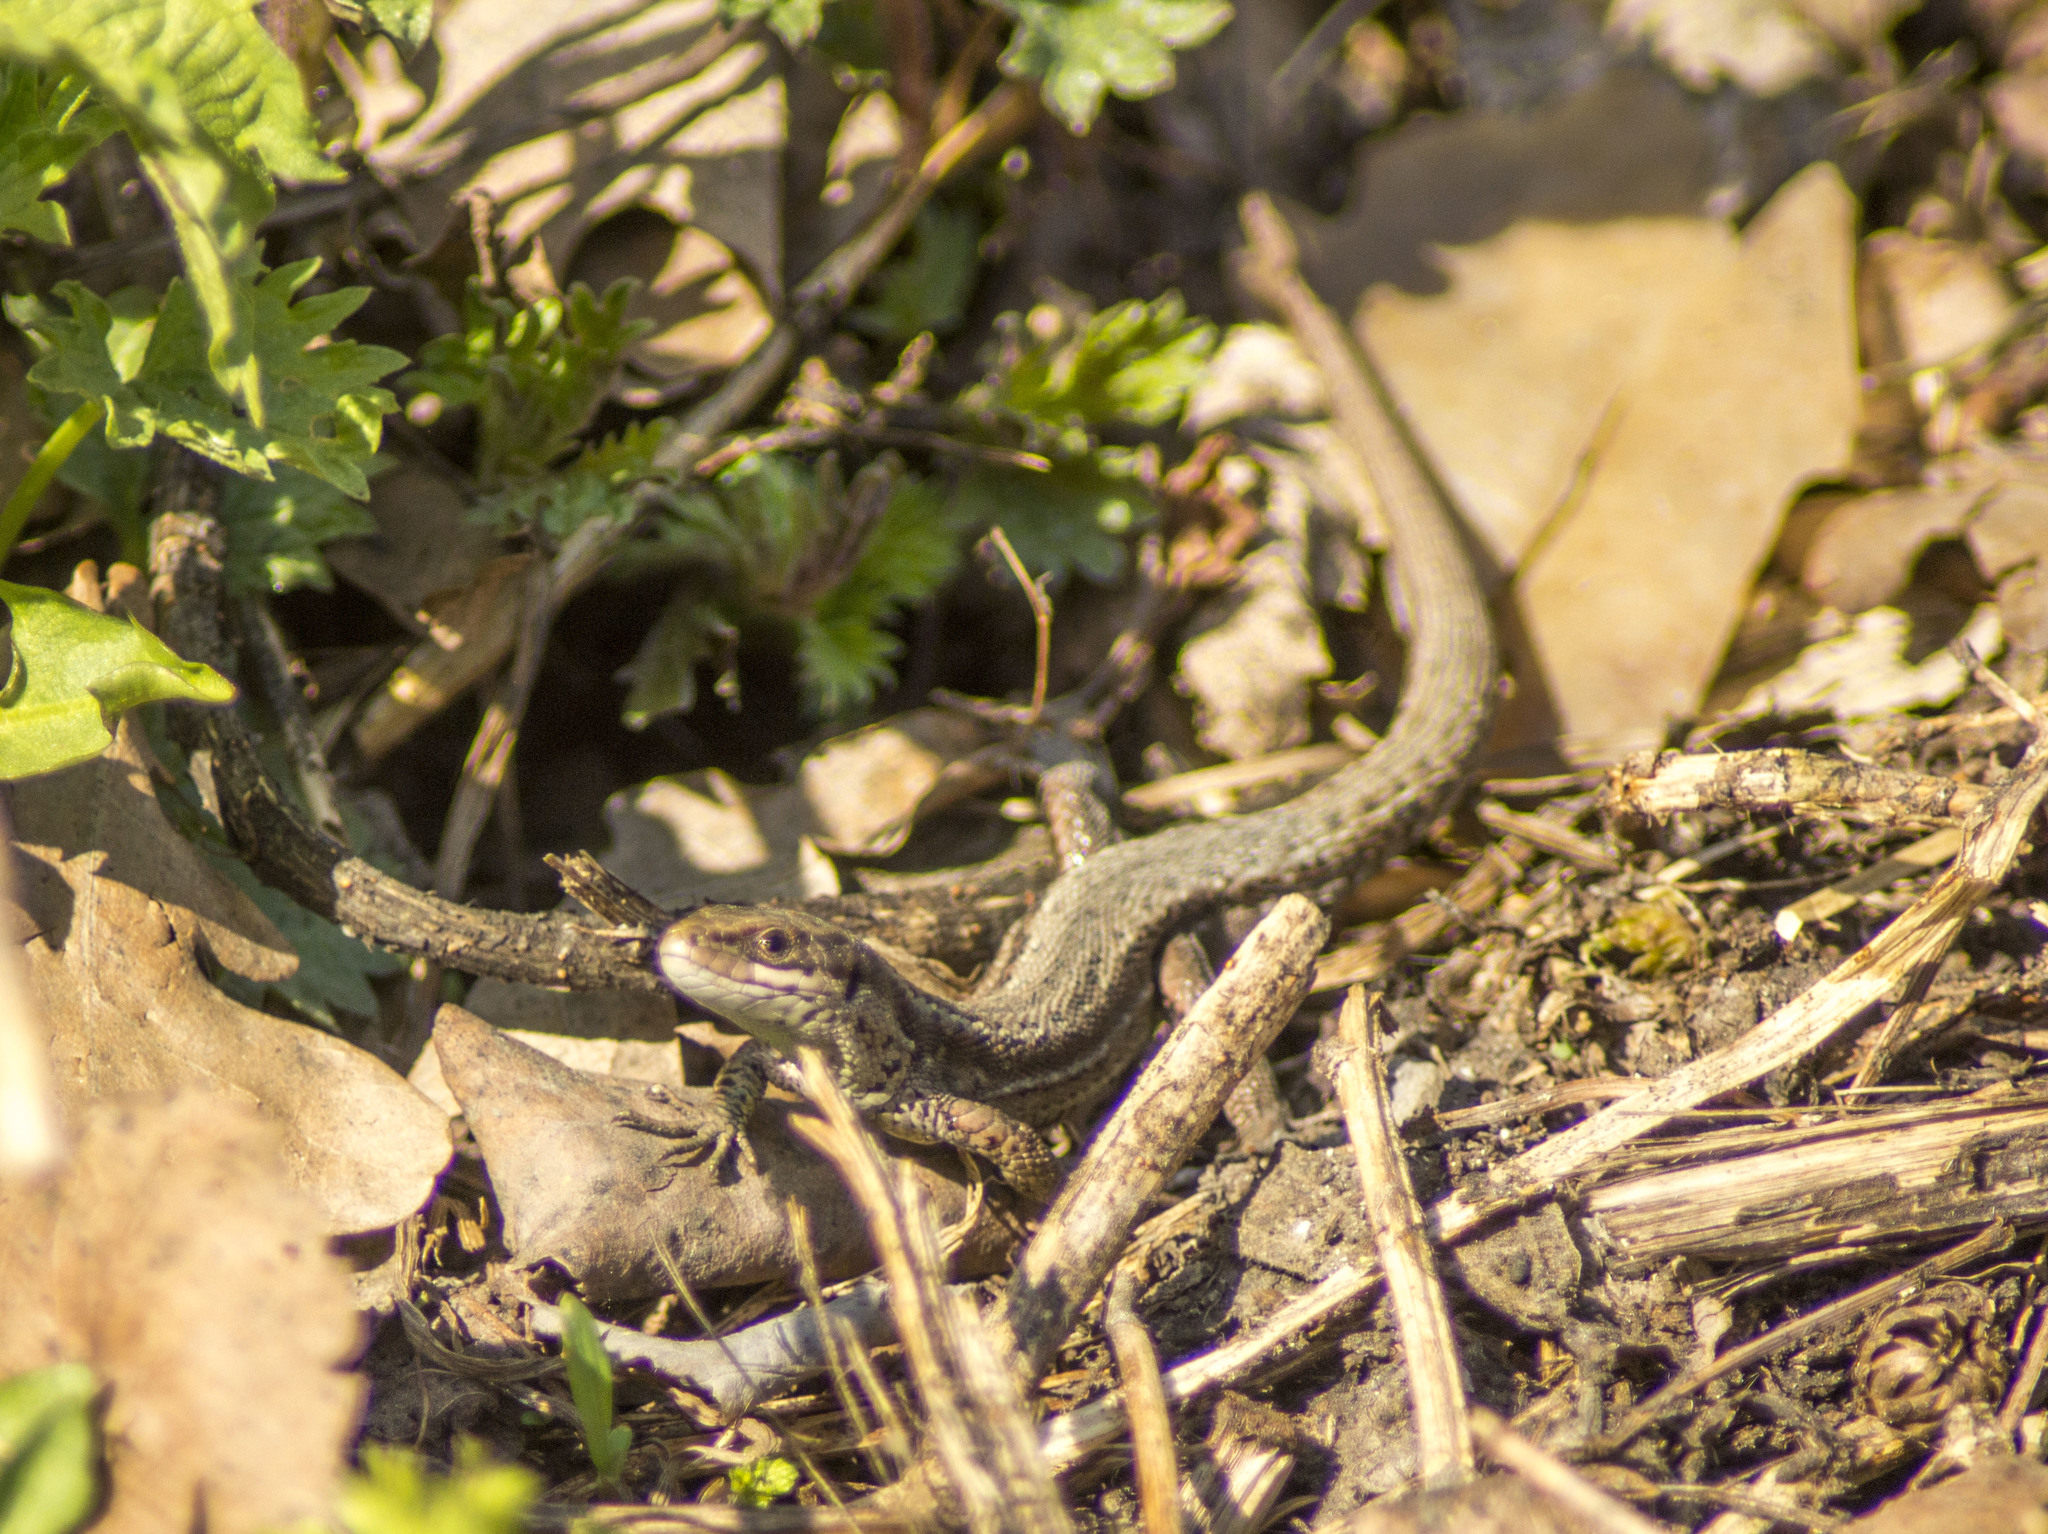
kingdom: Animalia
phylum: Chordata
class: Squamata
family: Lacertidae
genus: Zootoca
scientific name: Zootoca vivipara
